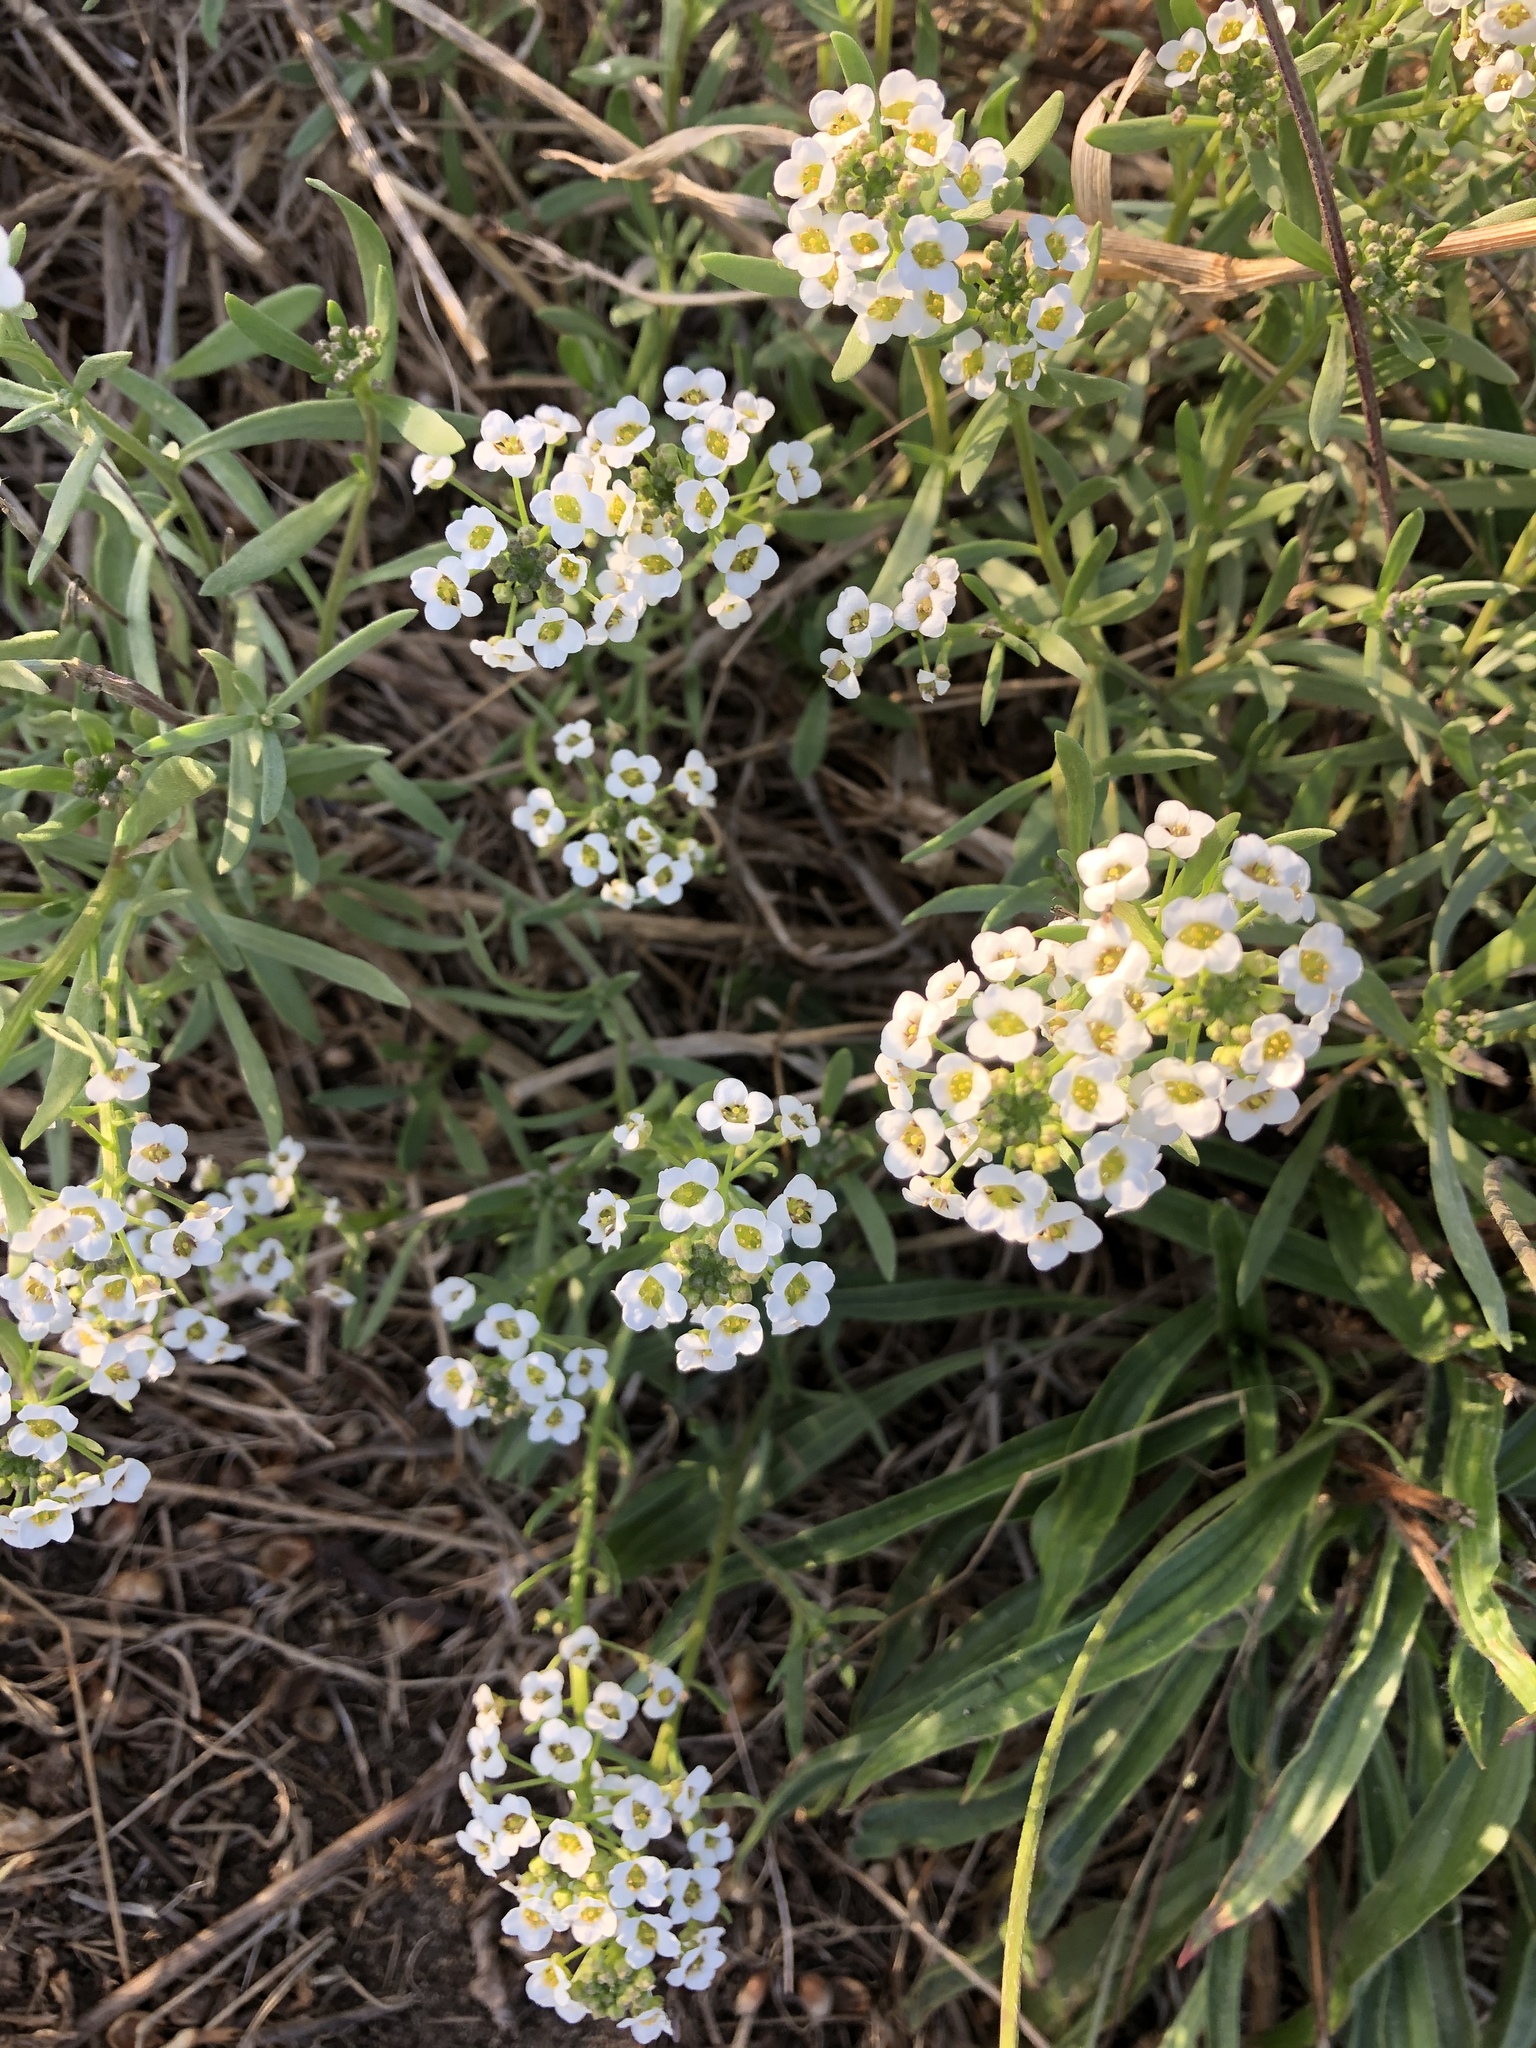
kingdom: Plantae
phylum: Tracheophyta
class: Magnoliopsida
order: Brassicales
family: Brassicaceae
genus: Lobularia
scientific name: Lobularia maritima
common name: Sweet alison
